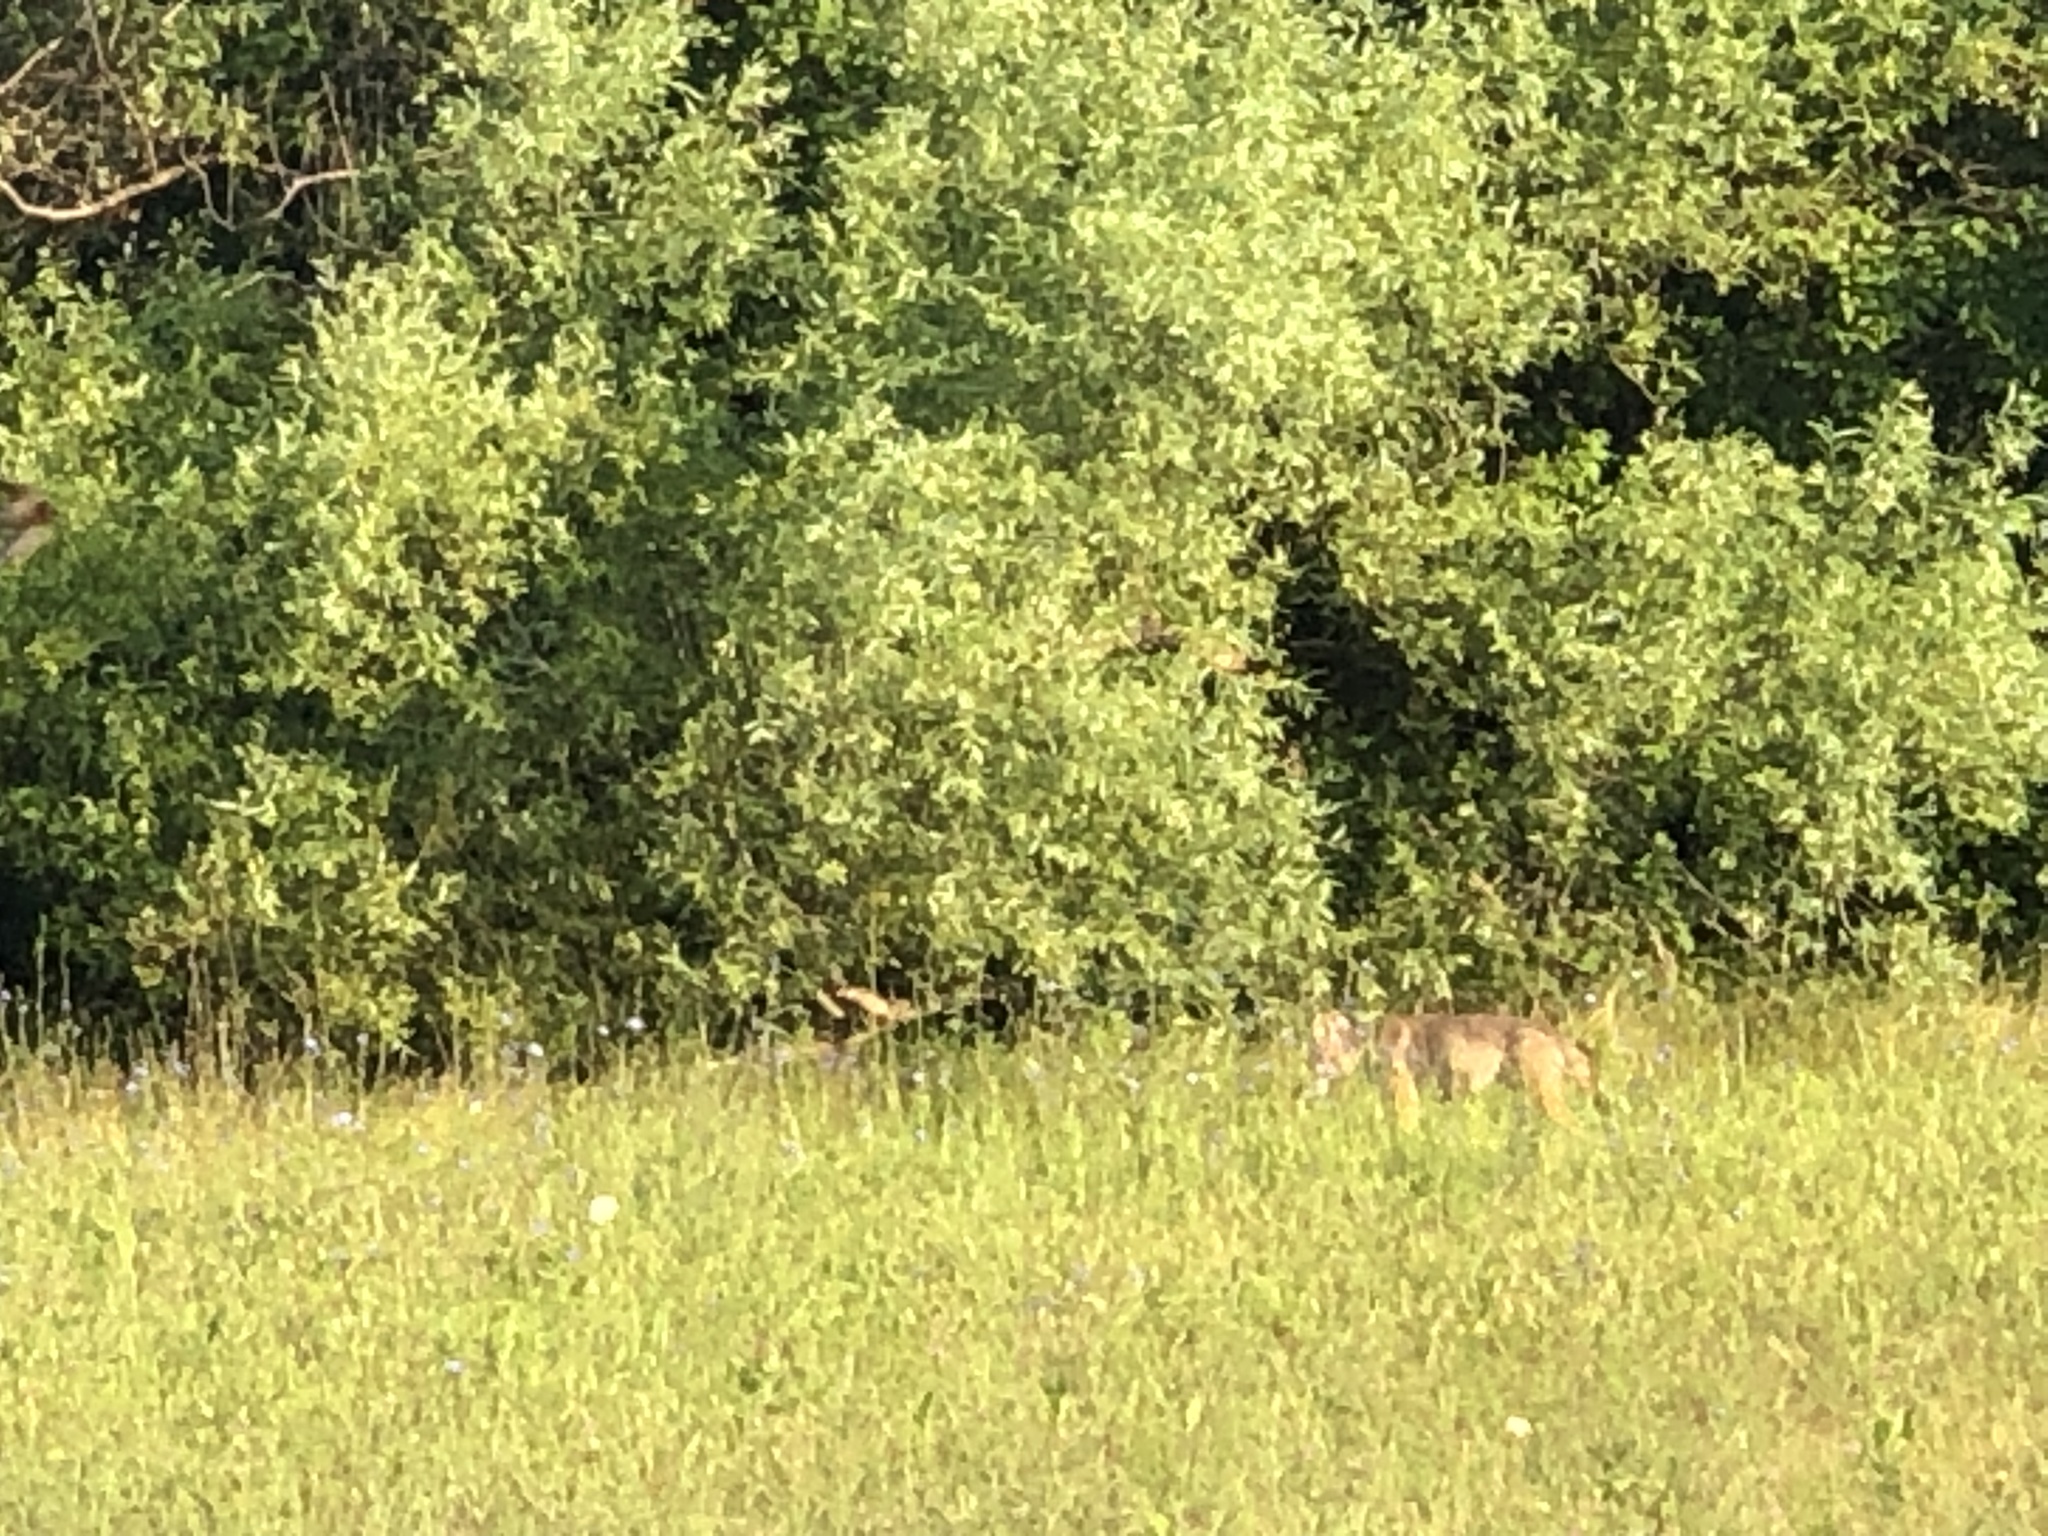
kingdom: Animalia
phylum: Chordata
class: Mammalia
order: Carnivora
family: Canidae
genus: Canis
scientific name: Canis latrans
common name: Coyote
